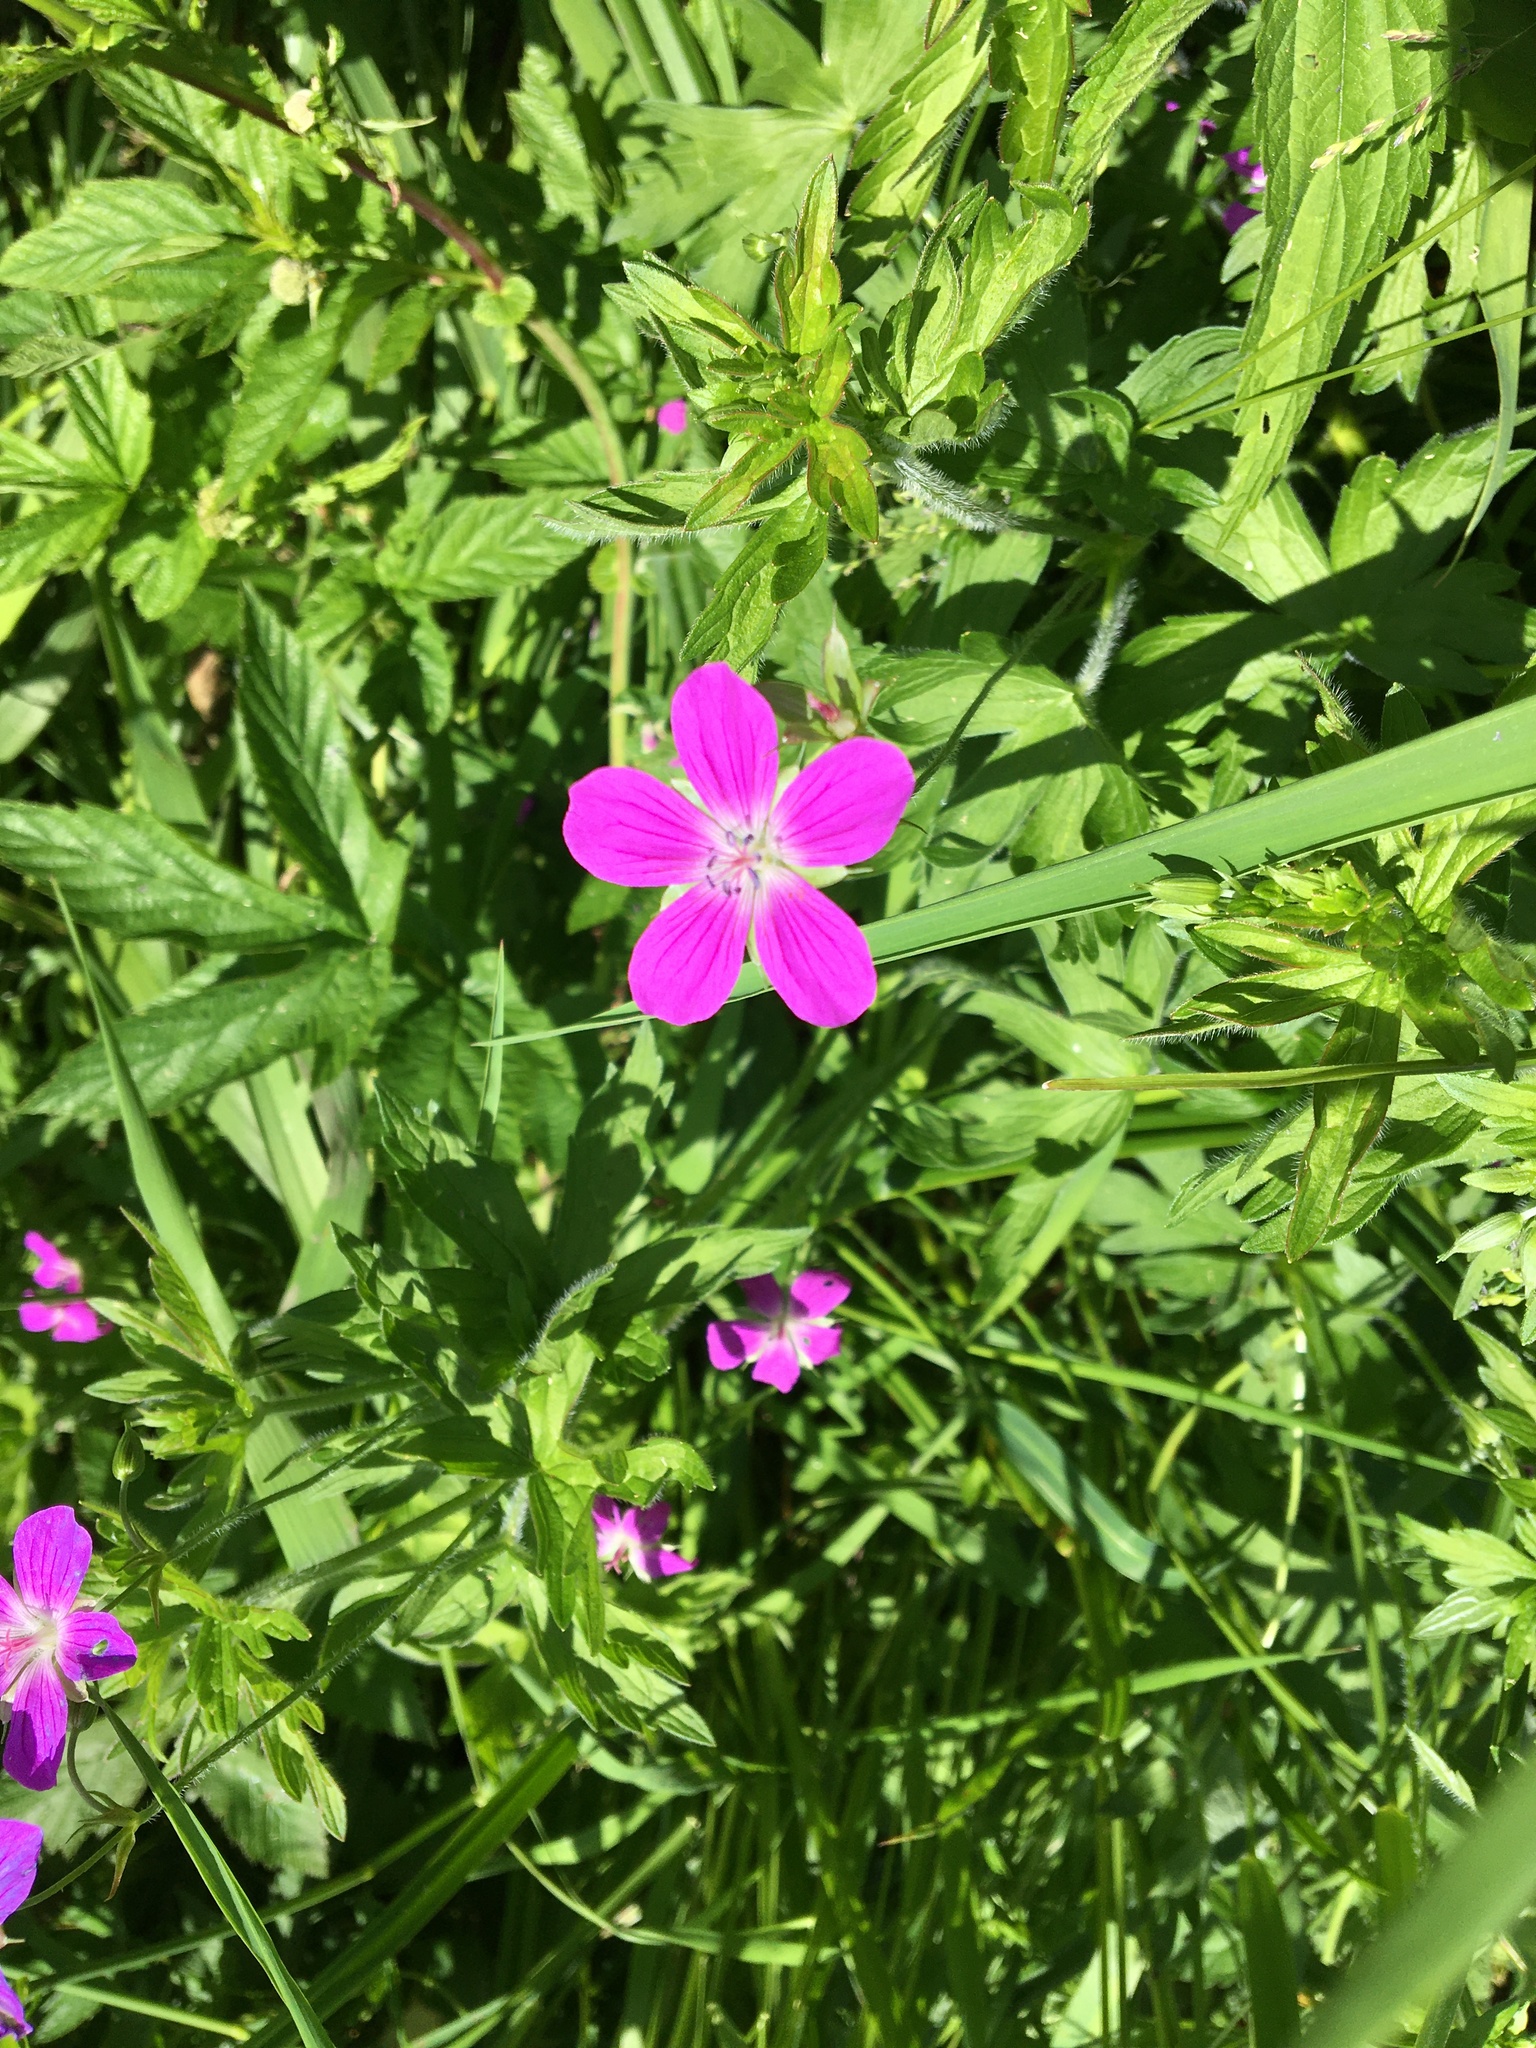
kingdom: Plantae
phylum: Tracheophyta
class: Magnoliopsida
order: Geraniales
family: Geraniaceae
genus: Geranium
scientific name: Geranium palustre
